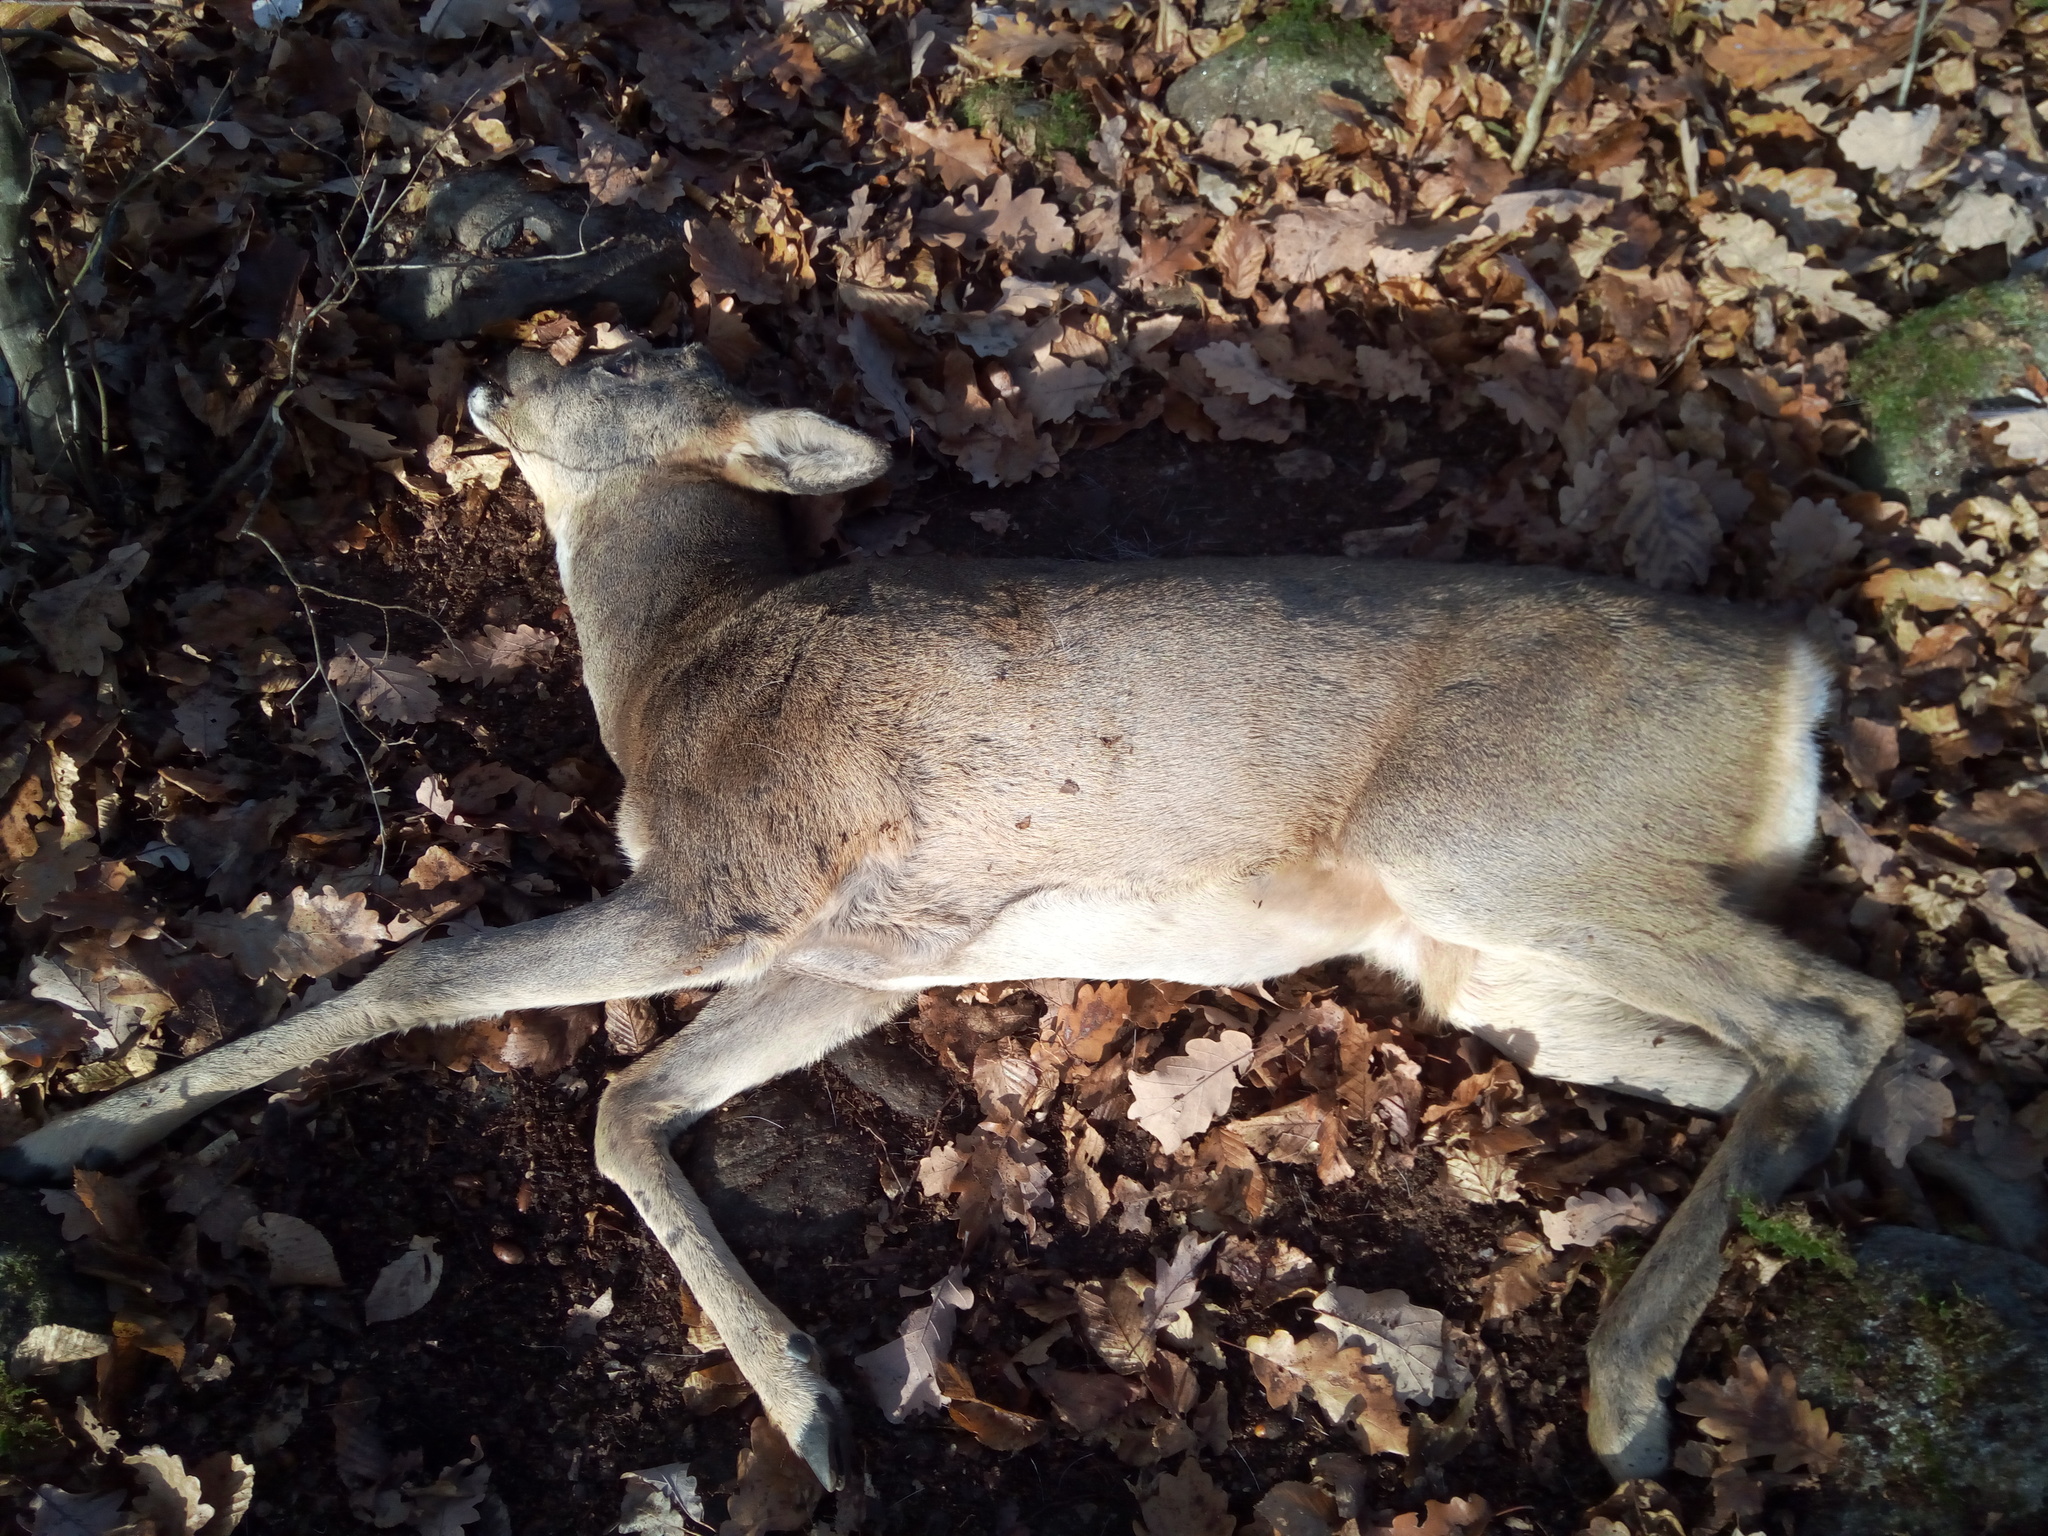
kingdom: Animalia
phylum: Chordata
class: Mammalia
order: Artiodactyla
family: Cervidae
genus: Capreolus
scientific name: Capreolus capreolus
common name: Western roe deer
